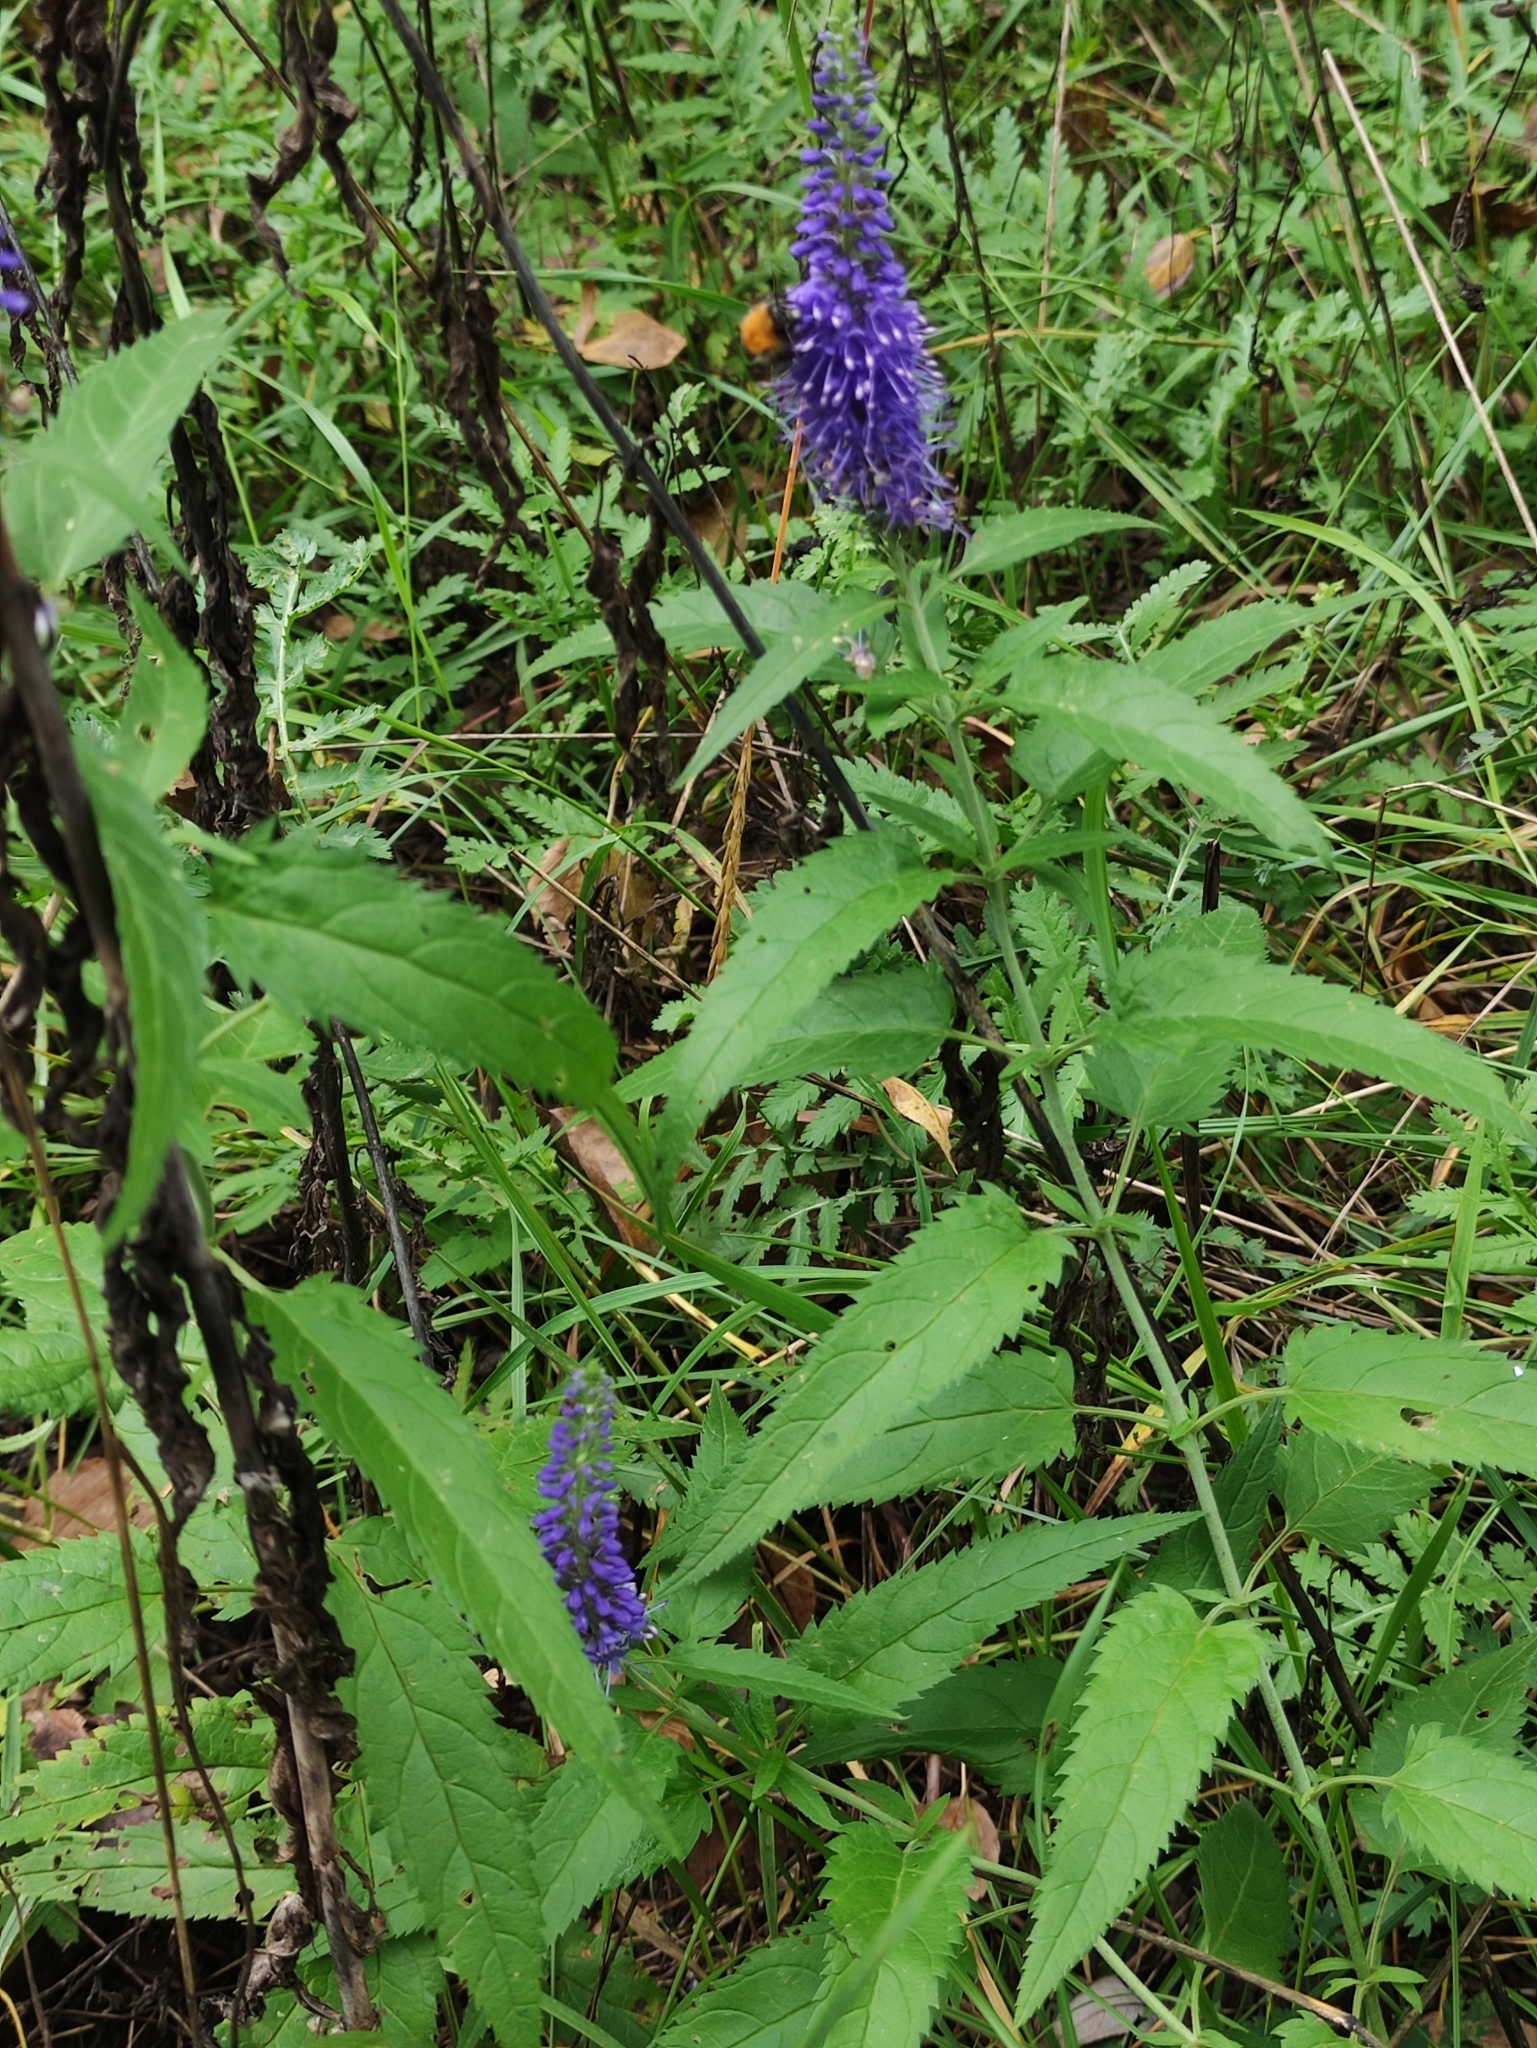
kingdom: Plantae
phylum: Tracheophyta
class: Magnoliopsida
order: Lamiales
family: Plantaginaceae
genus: Veronica
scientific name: Veronica longifolia
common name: Garden speedwell
